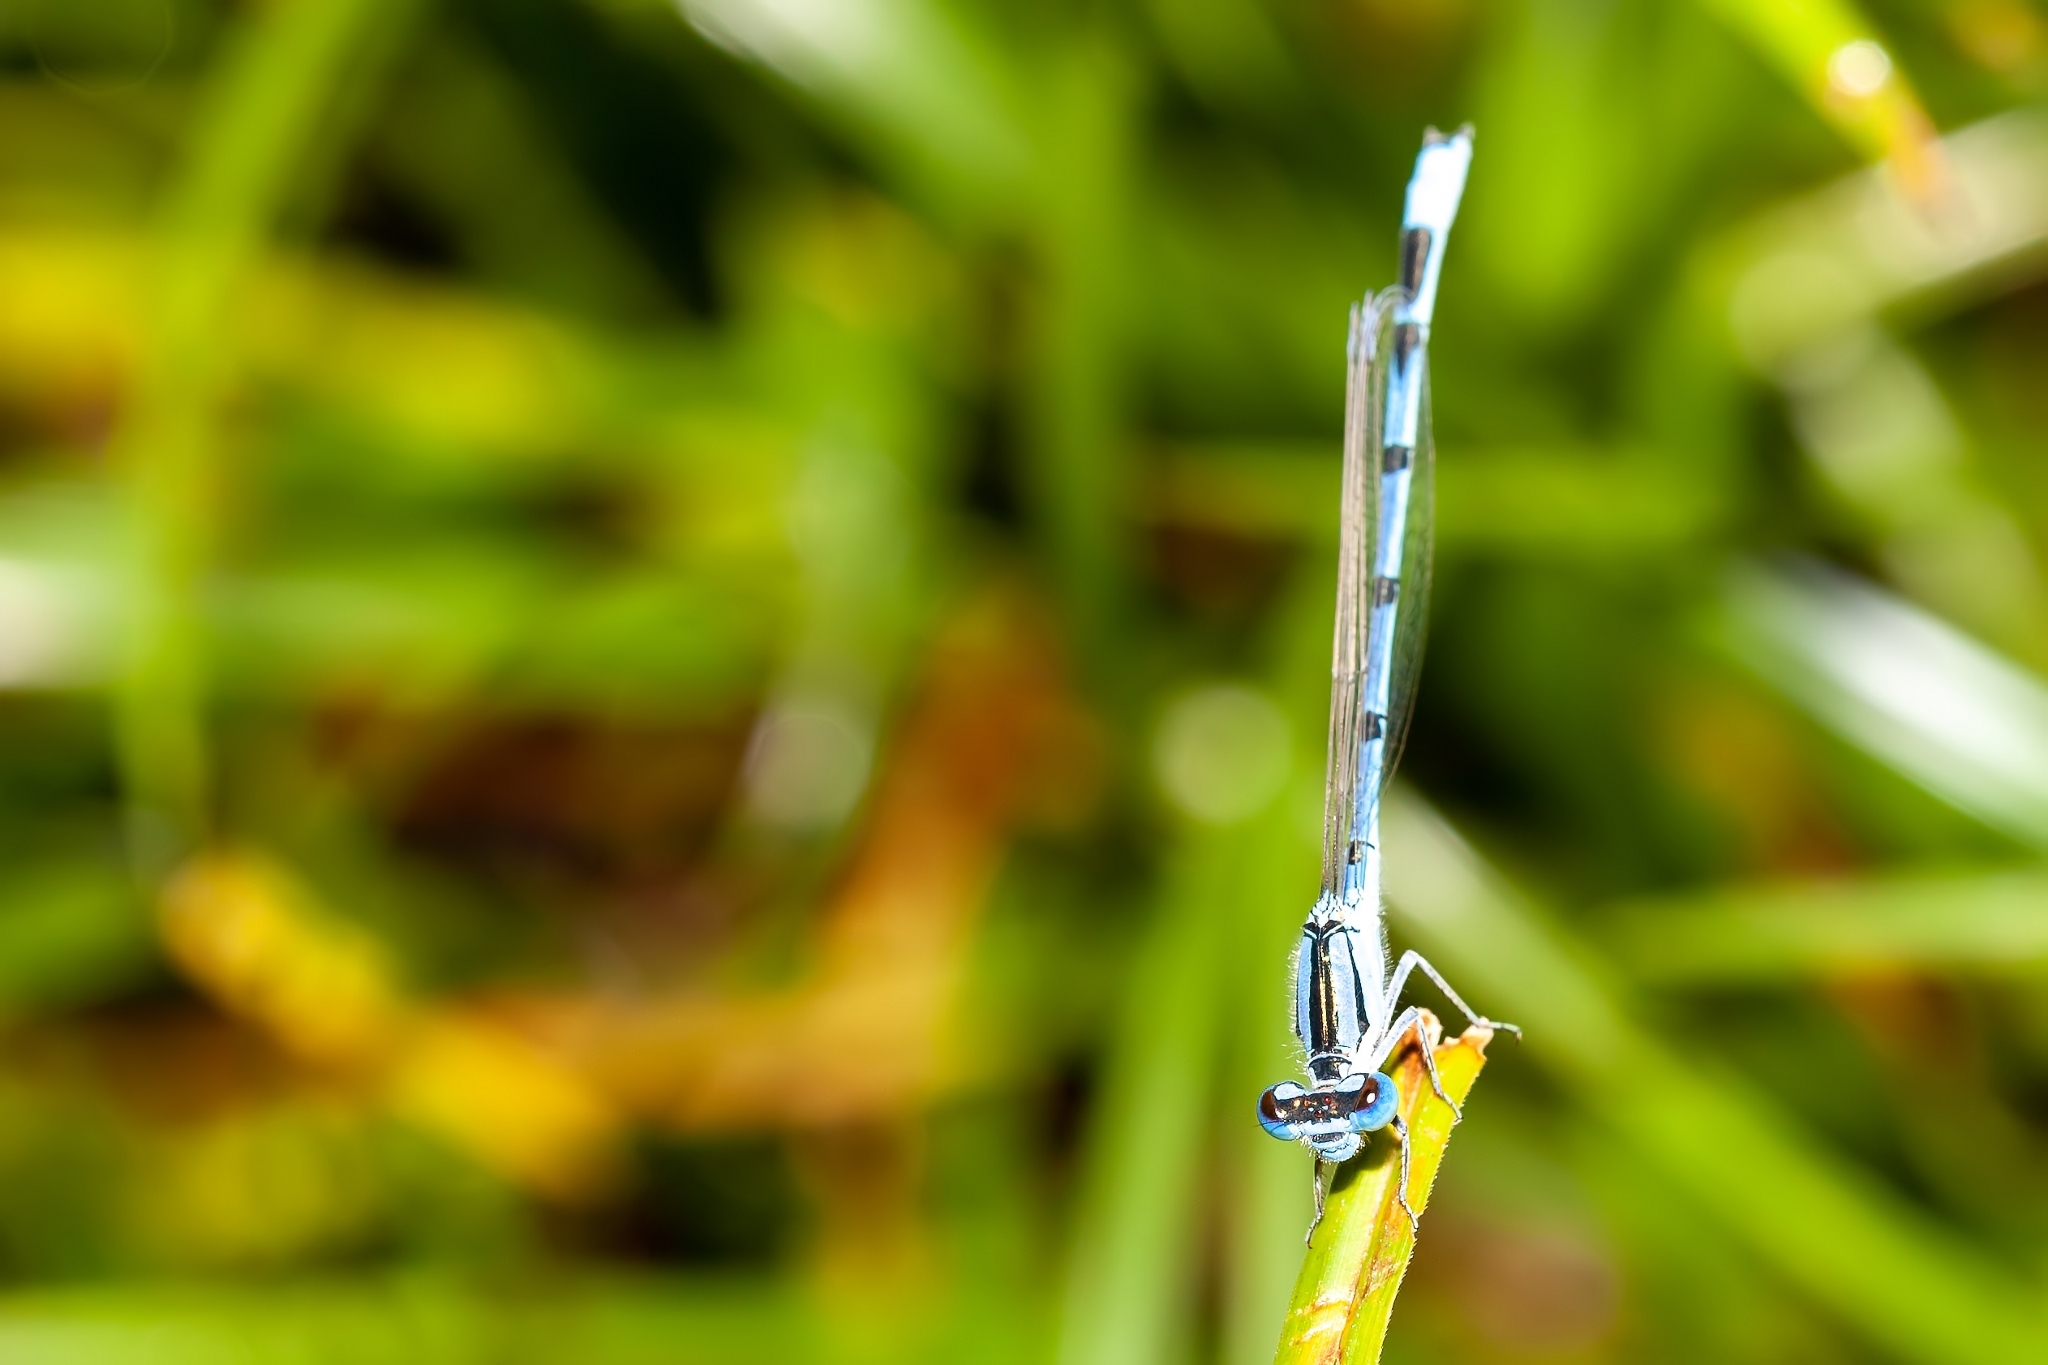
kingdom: Animalia
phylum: Arthropoda
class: Insecta
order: Odonata
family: Coenagrionidae
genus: Enallagma
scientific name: Enallagma civile
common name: Damselfly
